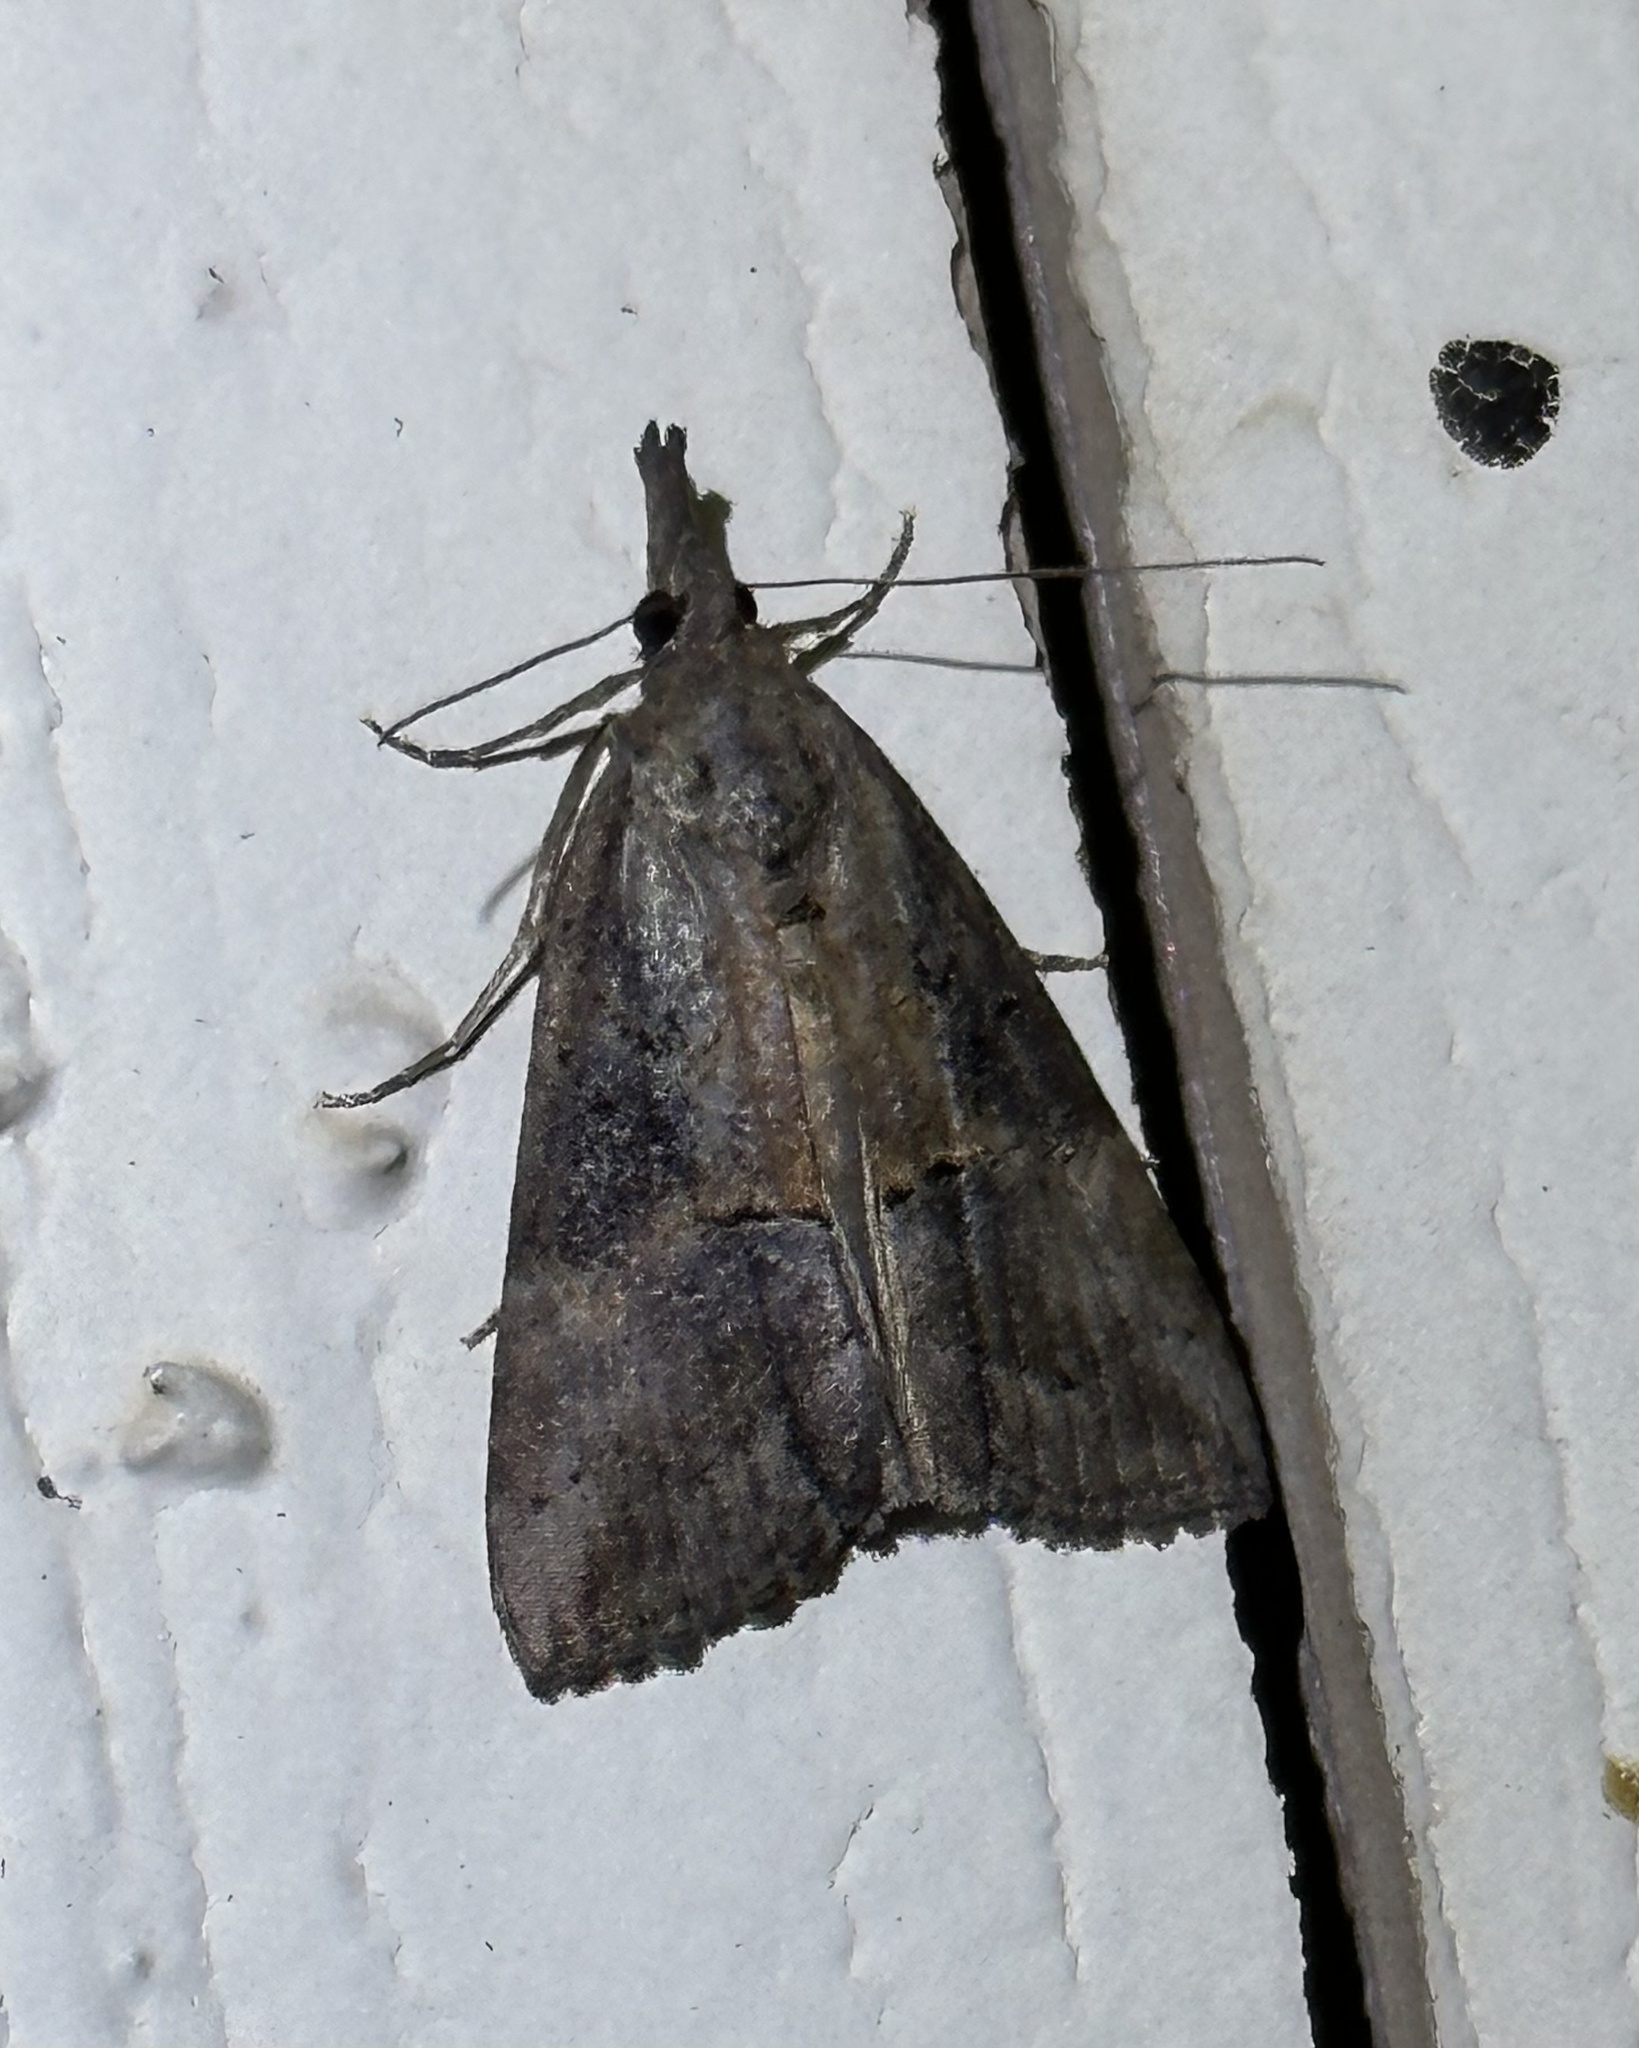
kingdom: Animalia
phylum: Arthropoda
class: Insecta
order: Lepidoptera
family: Erebidae
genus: Hypena
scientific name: Hypena scabra
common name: Green cloverworm
